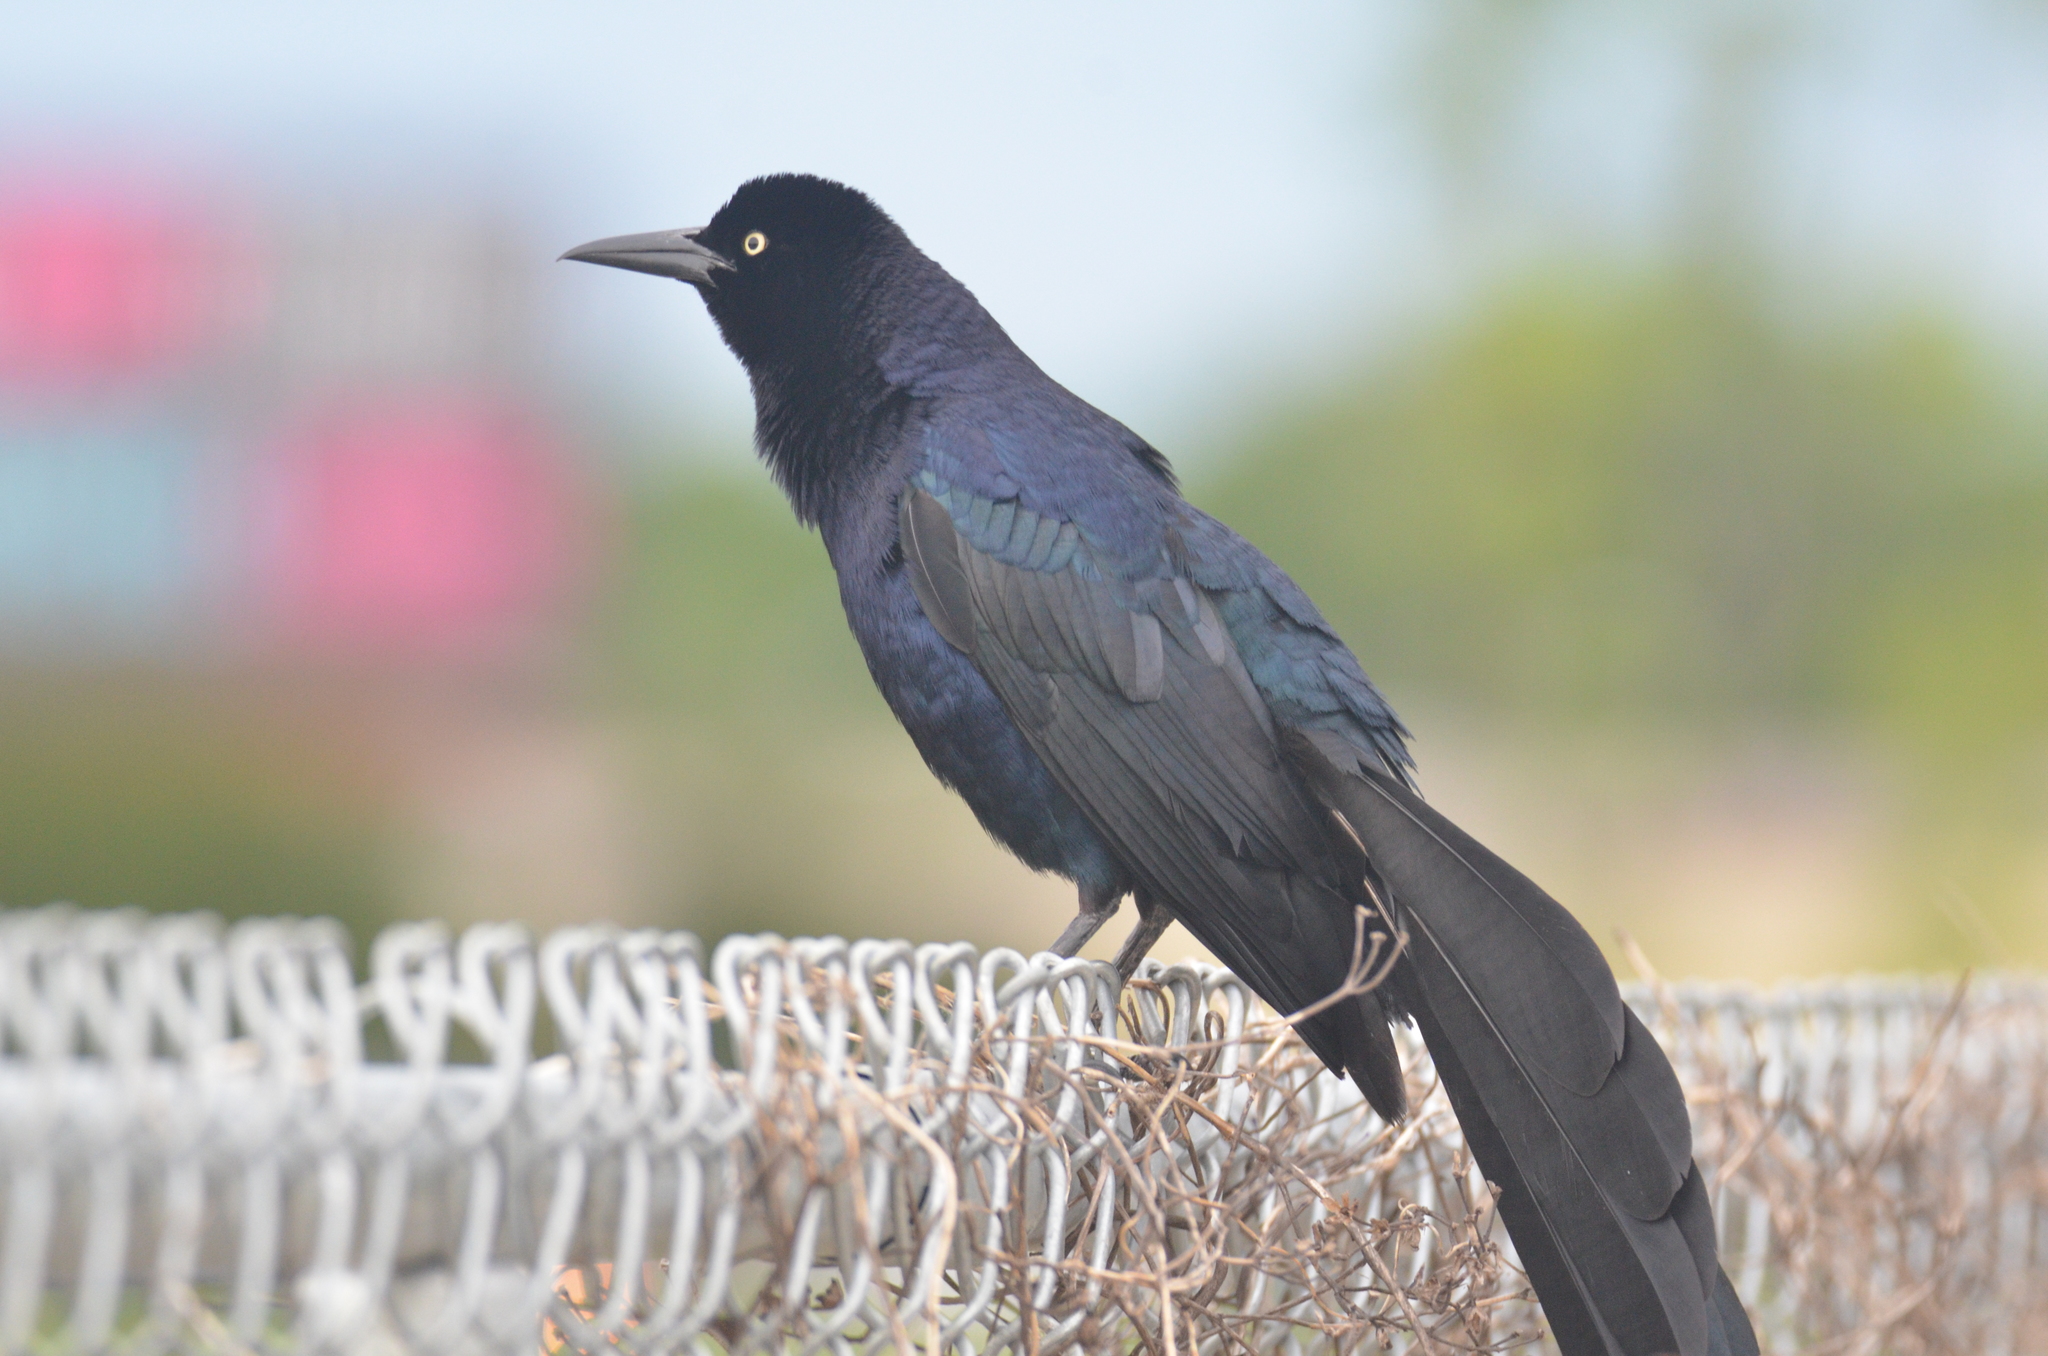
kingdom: Animalia
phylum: Chordata
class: Aves
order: Passeriformes
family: Icteridae
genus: Quiscalus
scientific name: Quiscalus mexicanus
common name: Great-tailed grackle
